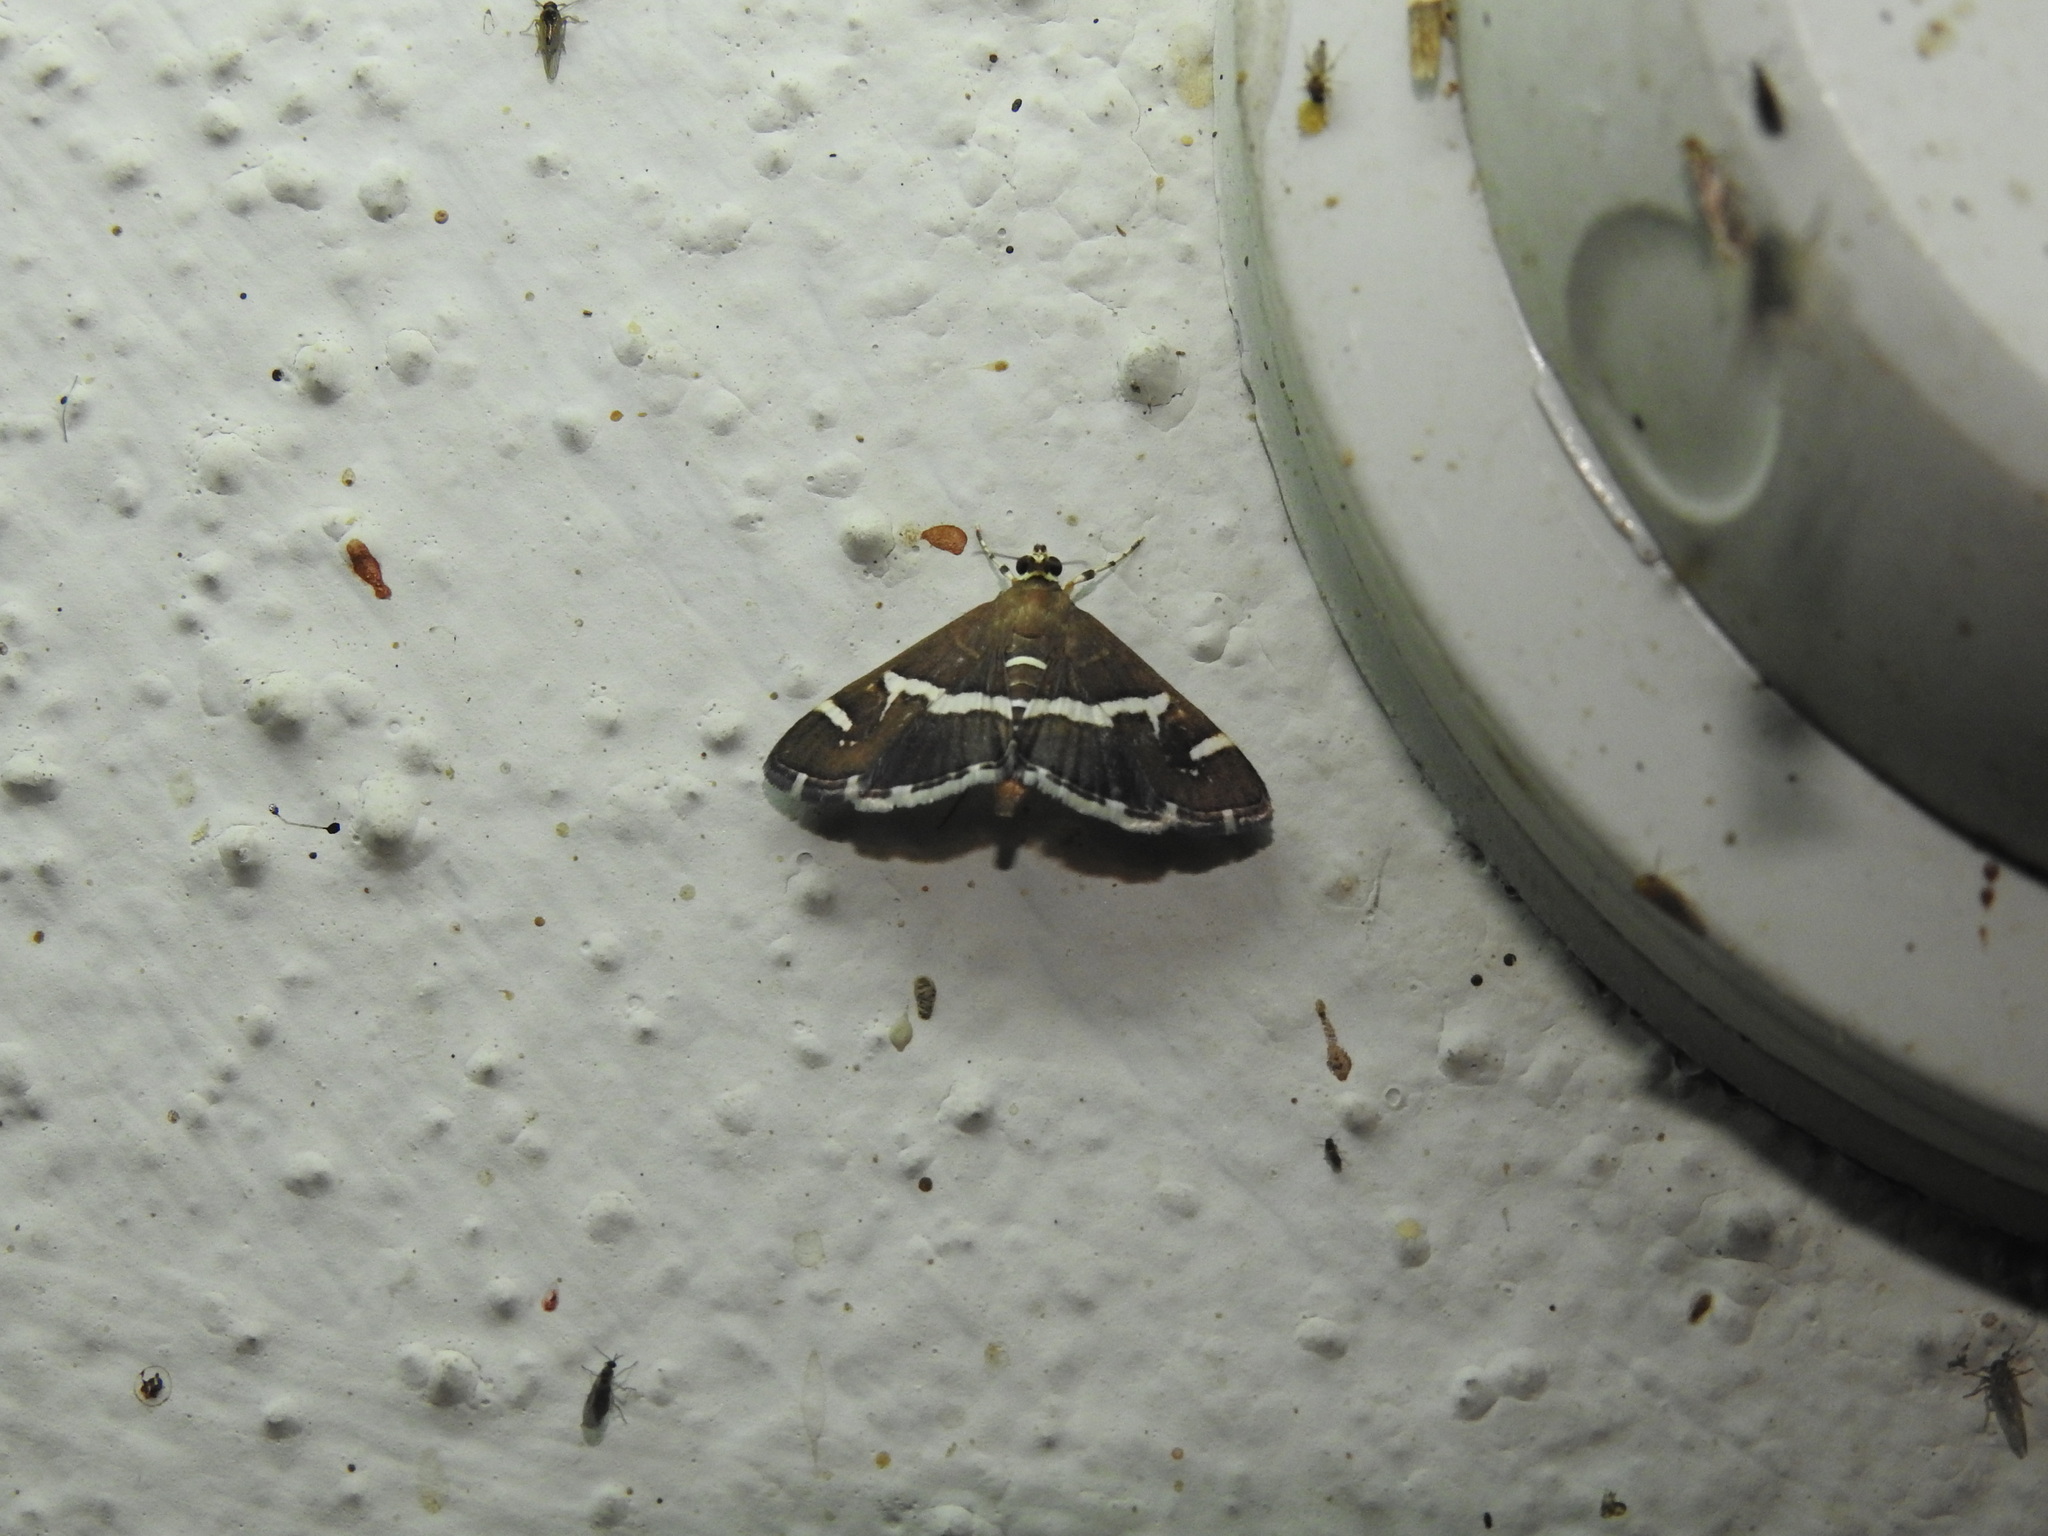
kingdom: Animalia
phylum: Arthropoda
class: Insecta
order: Lepidoptera
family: Crambidae
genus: Spoladea
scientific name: Spoladea recurvalis
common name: Beet webworm moth
